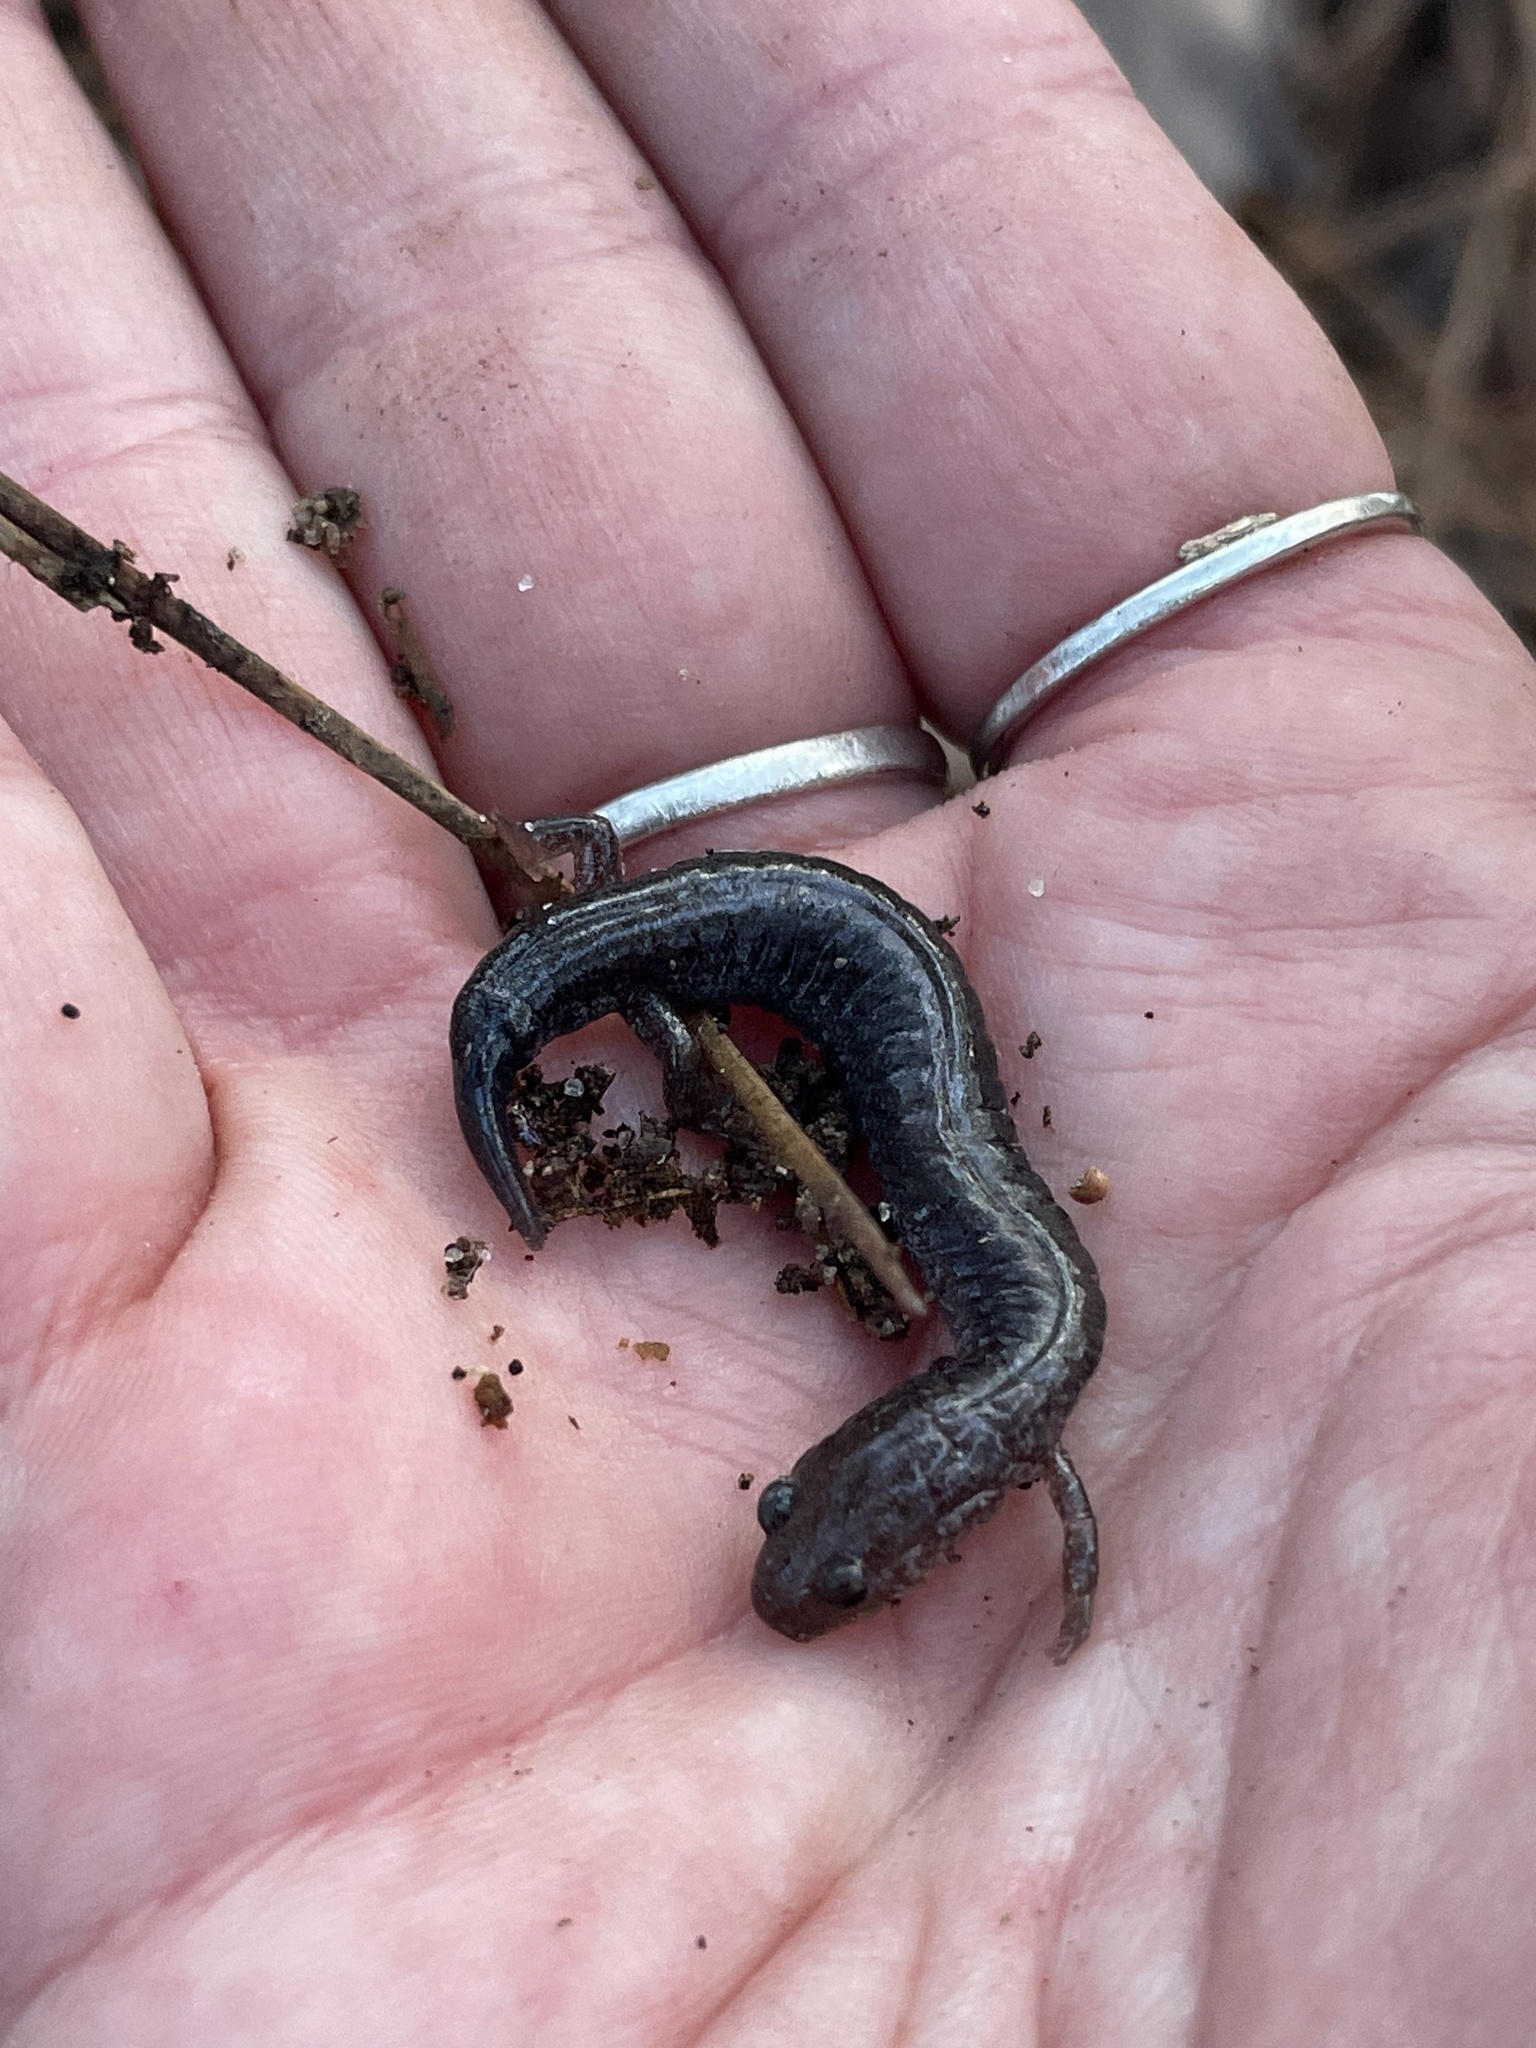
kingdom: Animalia
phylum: Chordata
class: Amphibia
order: Caudata
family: Plethodontidae
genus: Plethodon
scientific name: Plethodon cinereus
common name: Redback salamander
